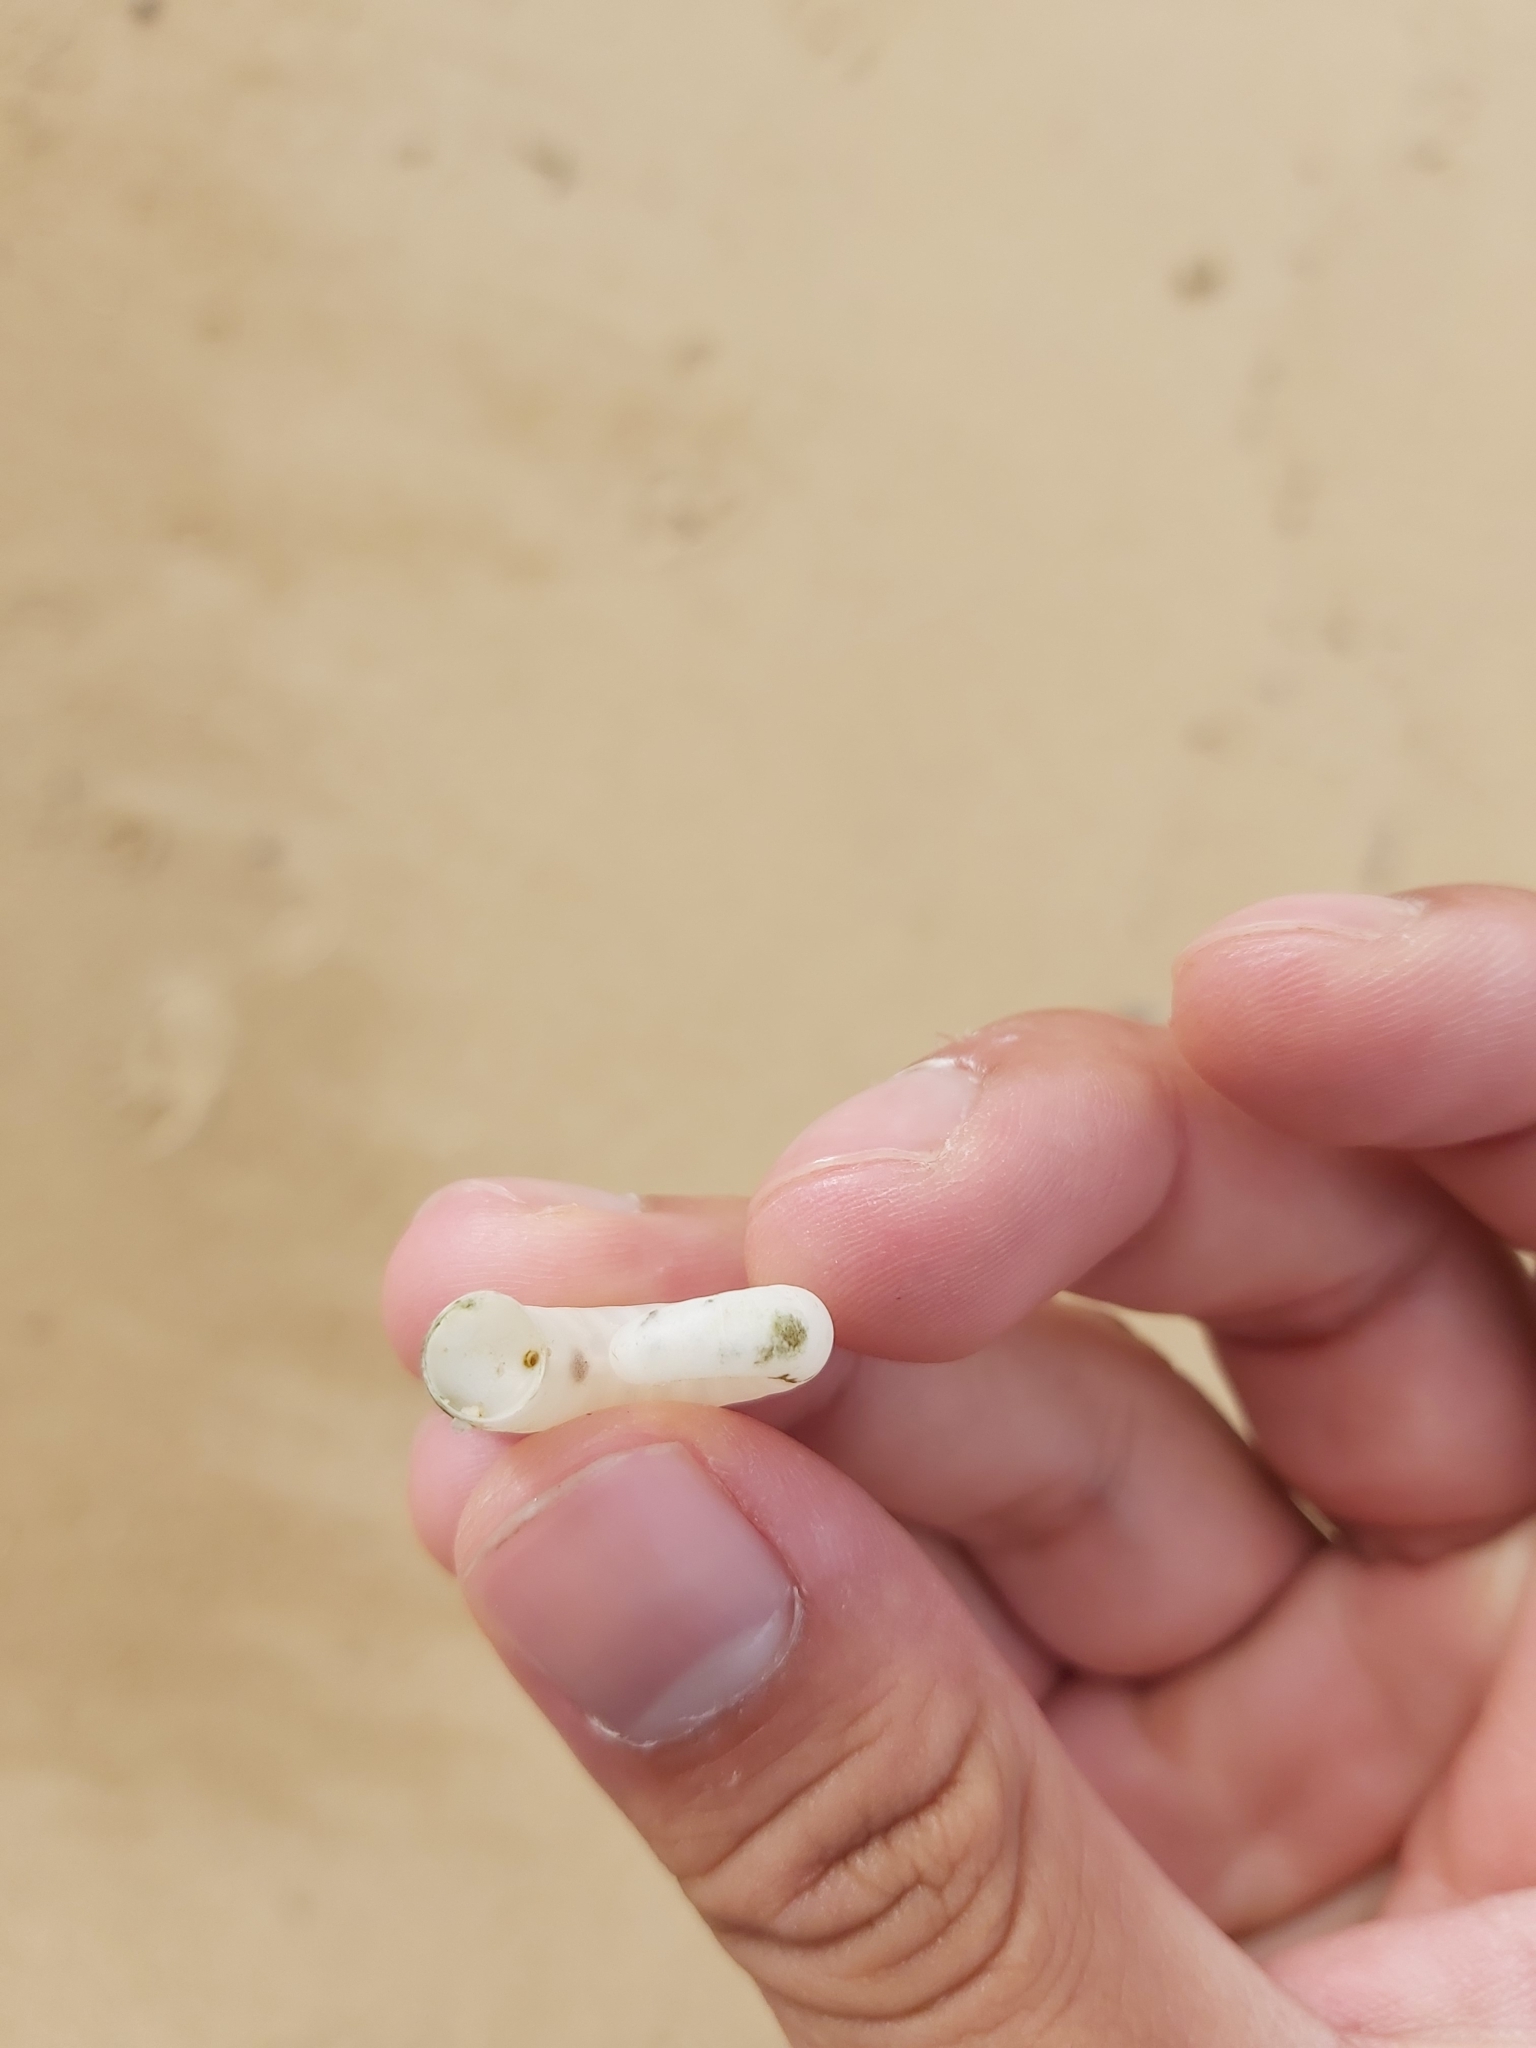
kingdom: Animalia
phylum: Mollusca
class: Cephalopoda
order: Spirulida
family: Spirulidae
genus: Spirula
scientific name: Spirula spirula
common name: Ram's horn squid
